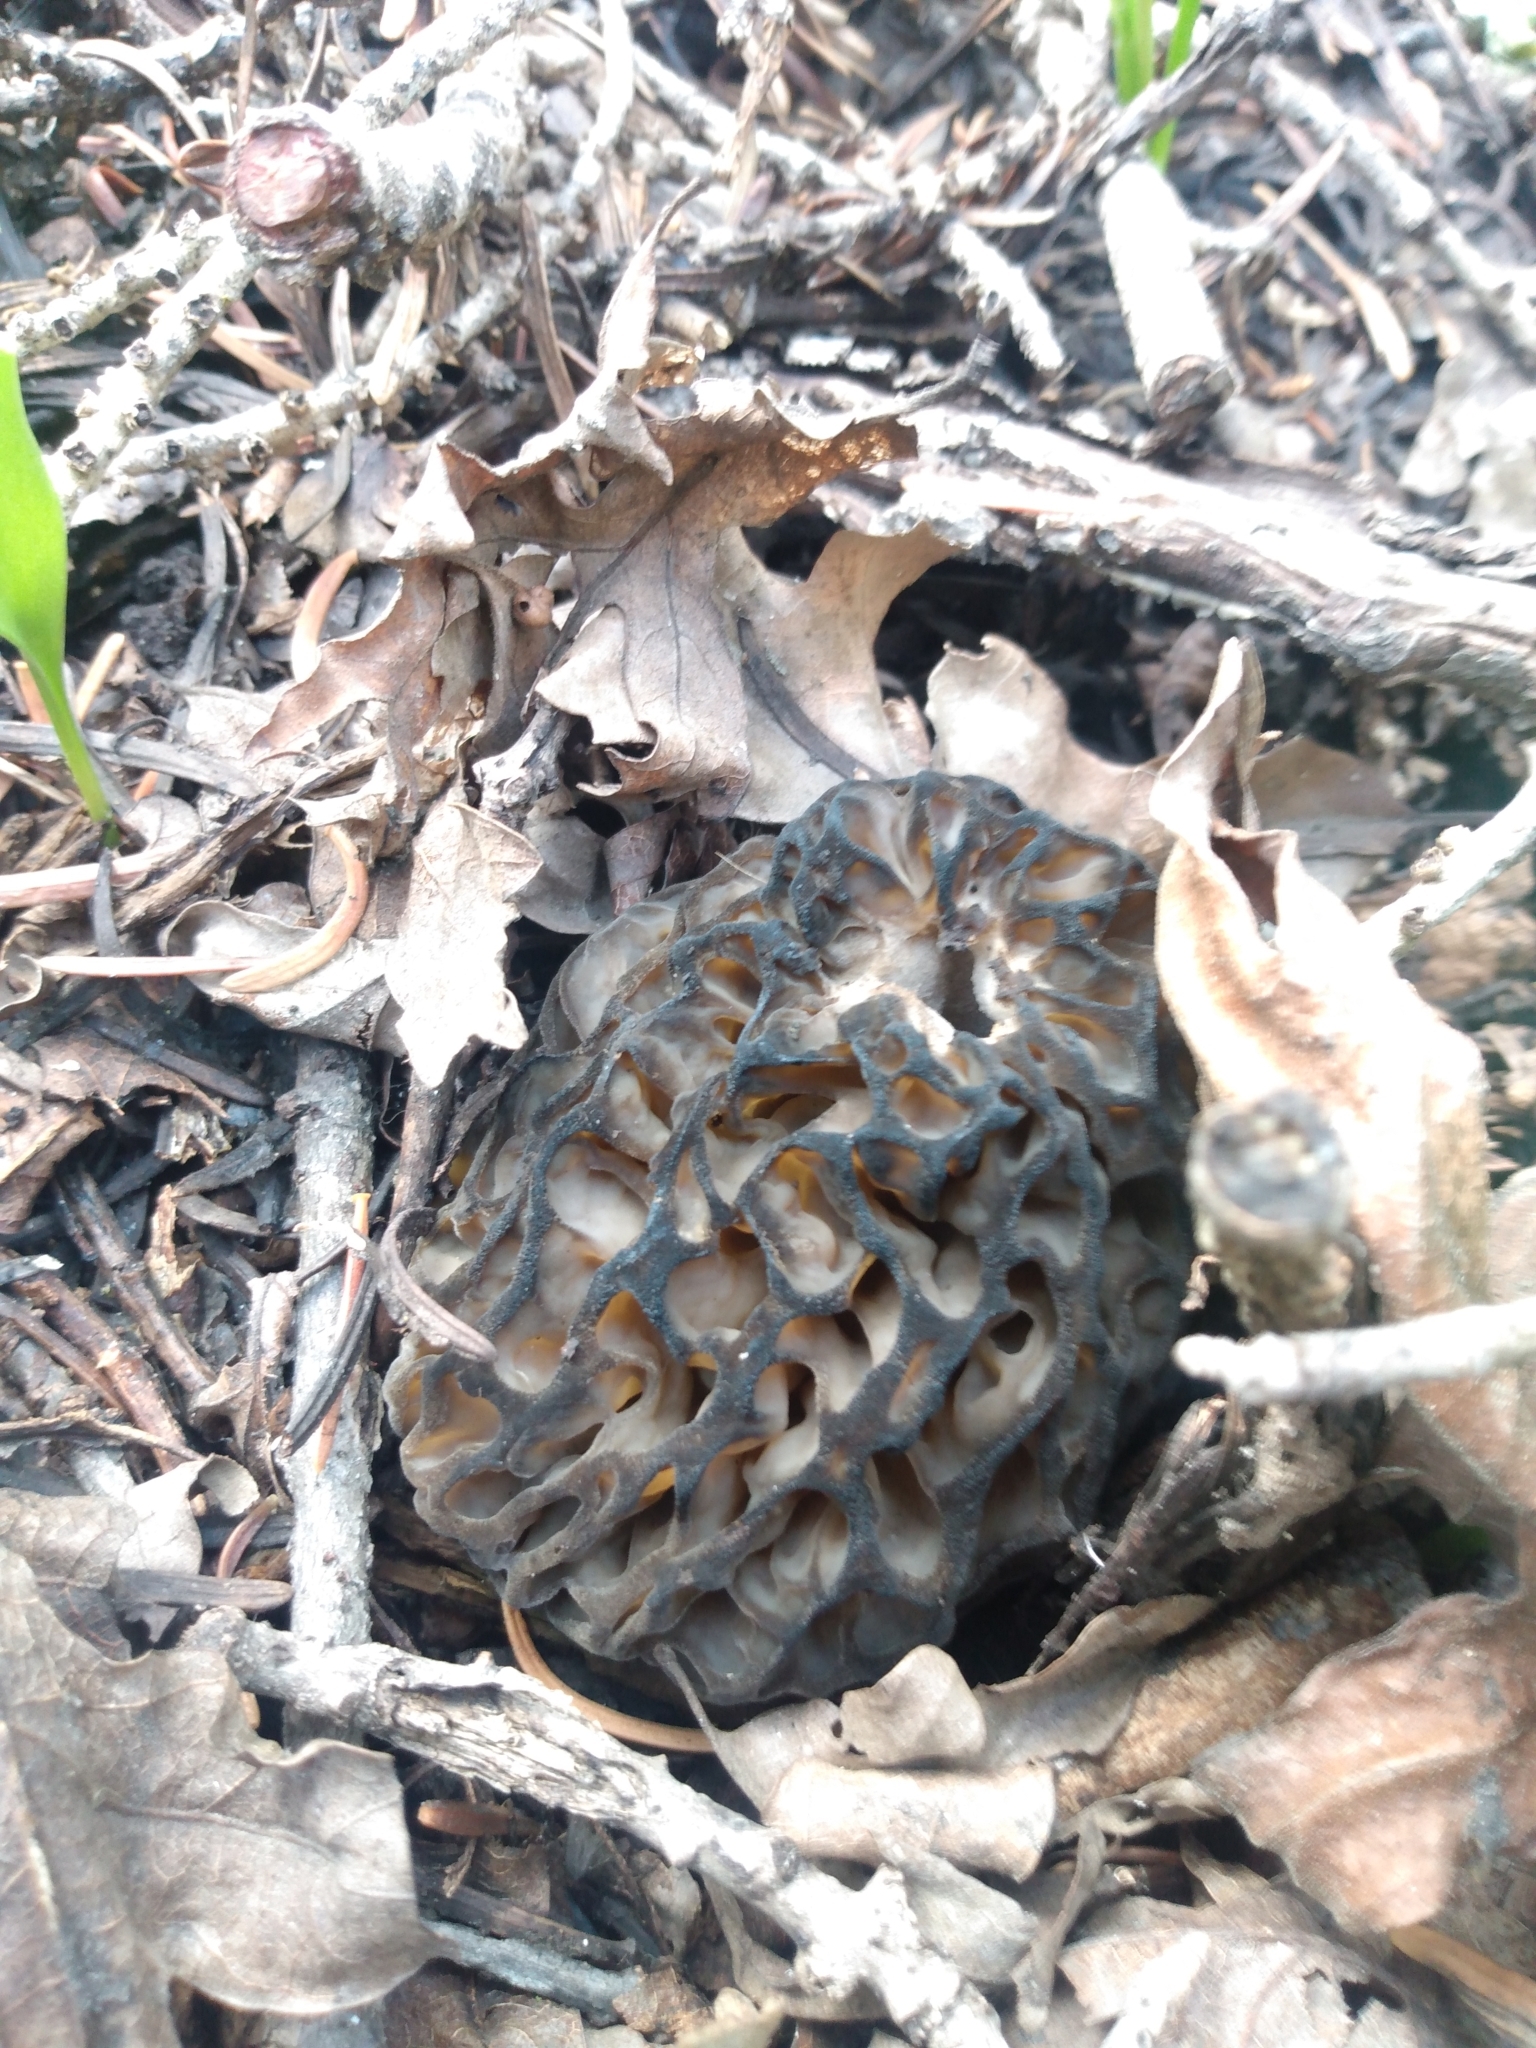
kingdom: Fungi
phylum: Ascomycota
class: Pezizomycetes
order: Pezizales
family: Morchellaceae
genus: Morchella
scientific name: Morchella snyderi
